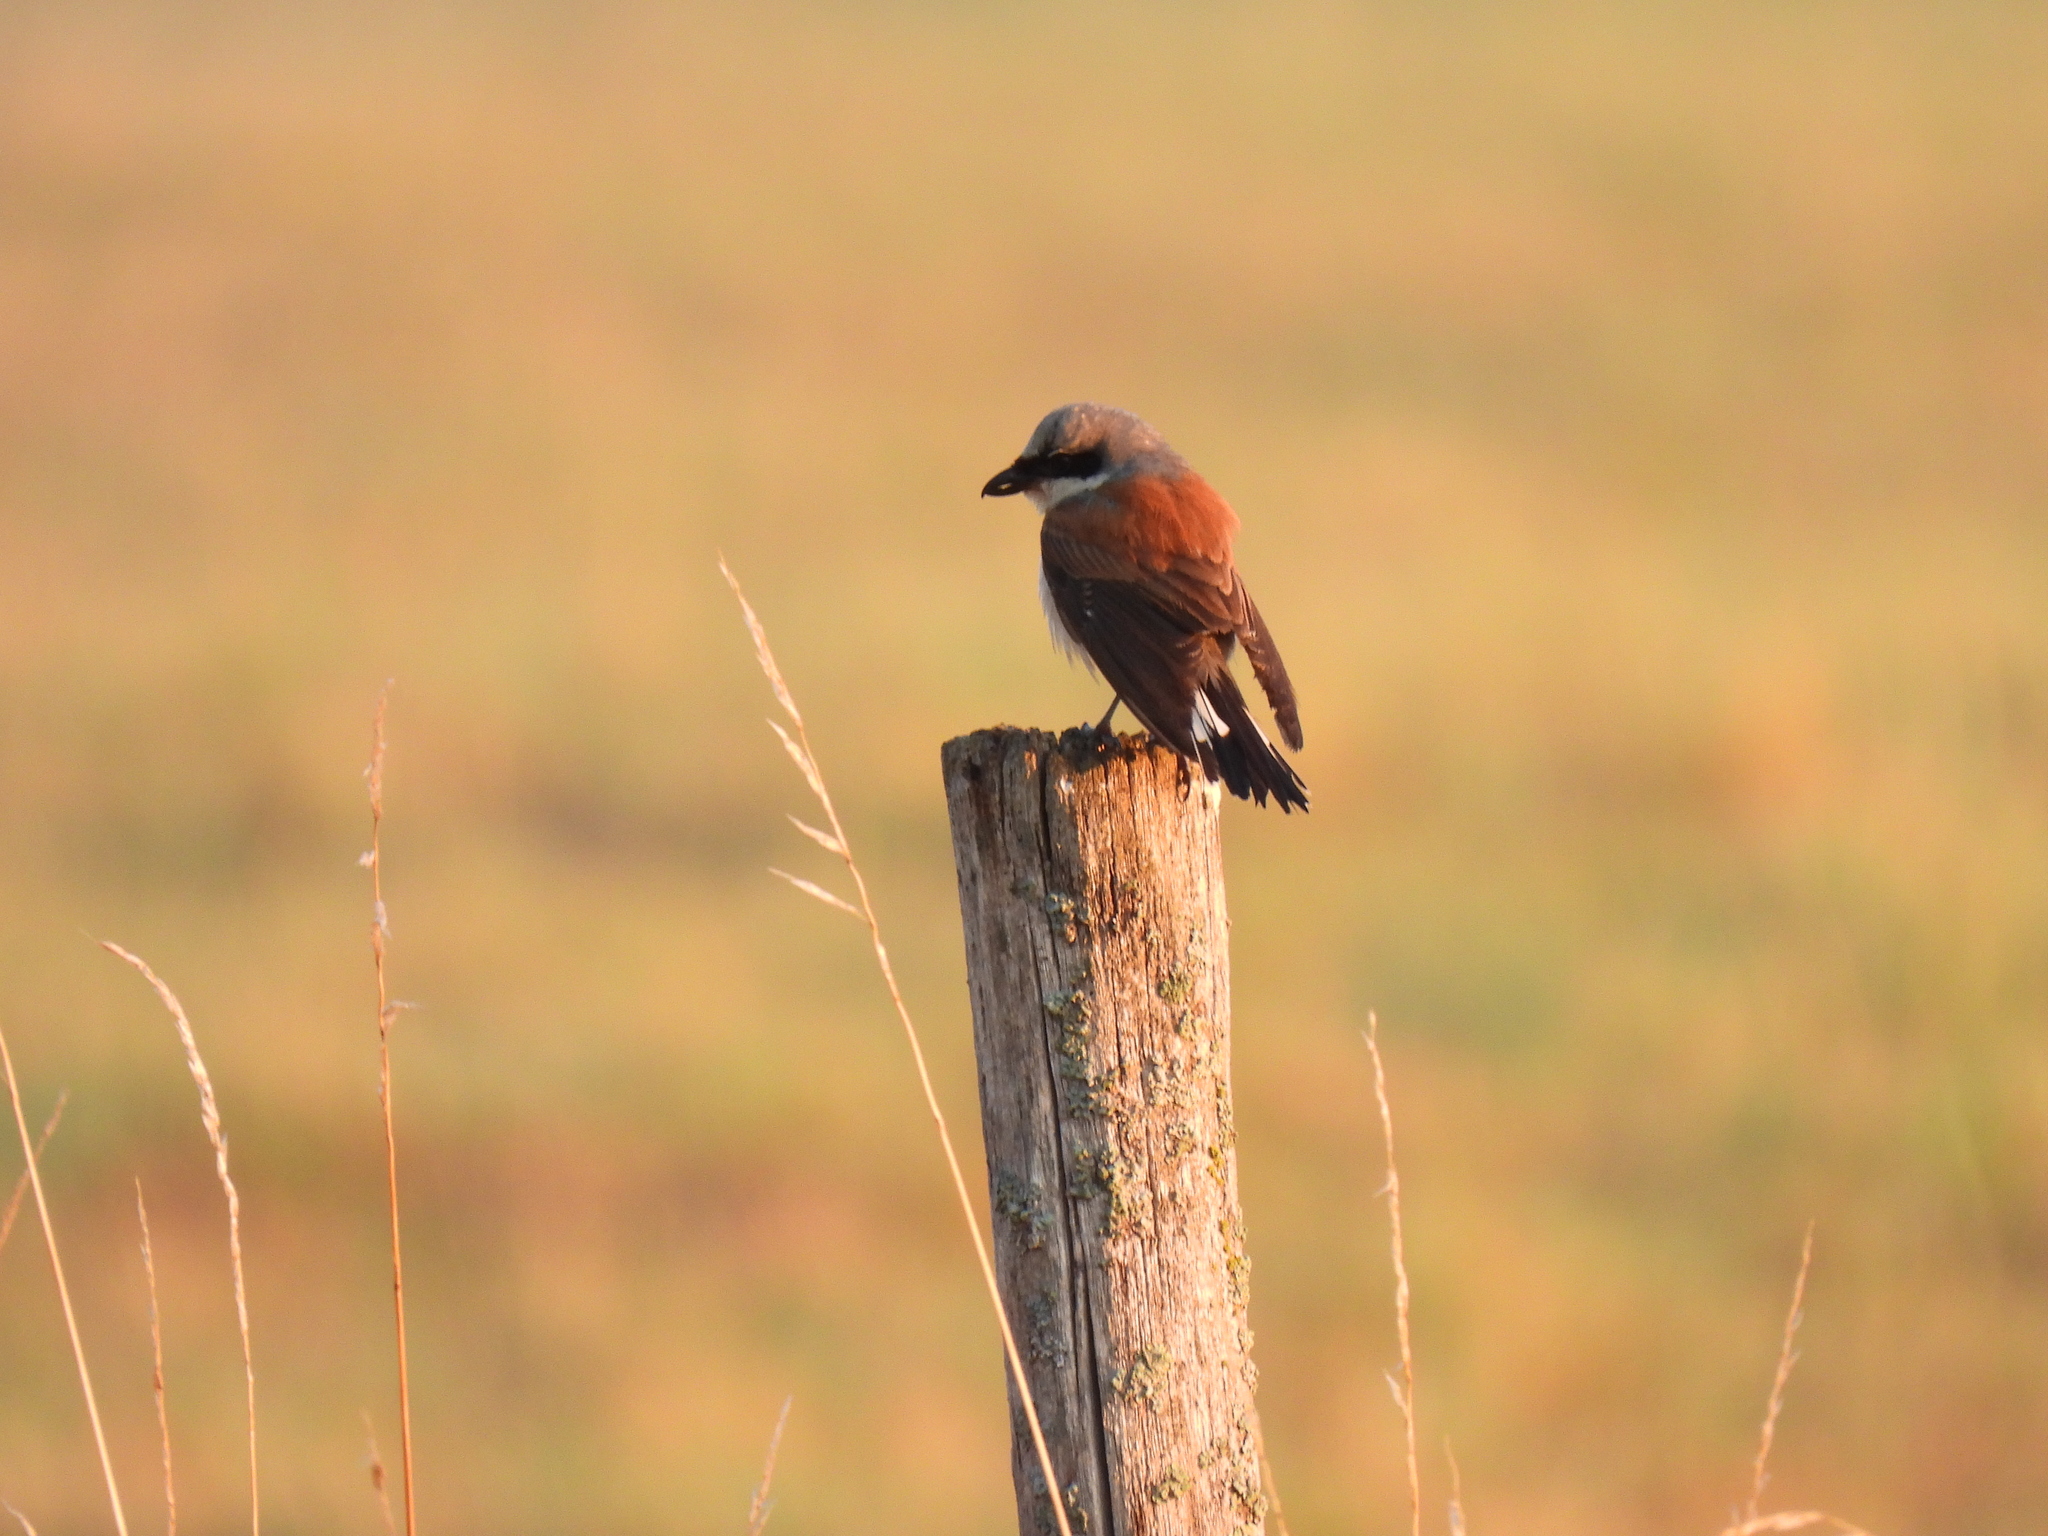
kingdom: Animalia
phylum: Chordata
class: Aves
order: Passeriformes
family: Laniidae
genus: Lanius
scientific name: Lanius collurio
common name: Red-backed shrike
